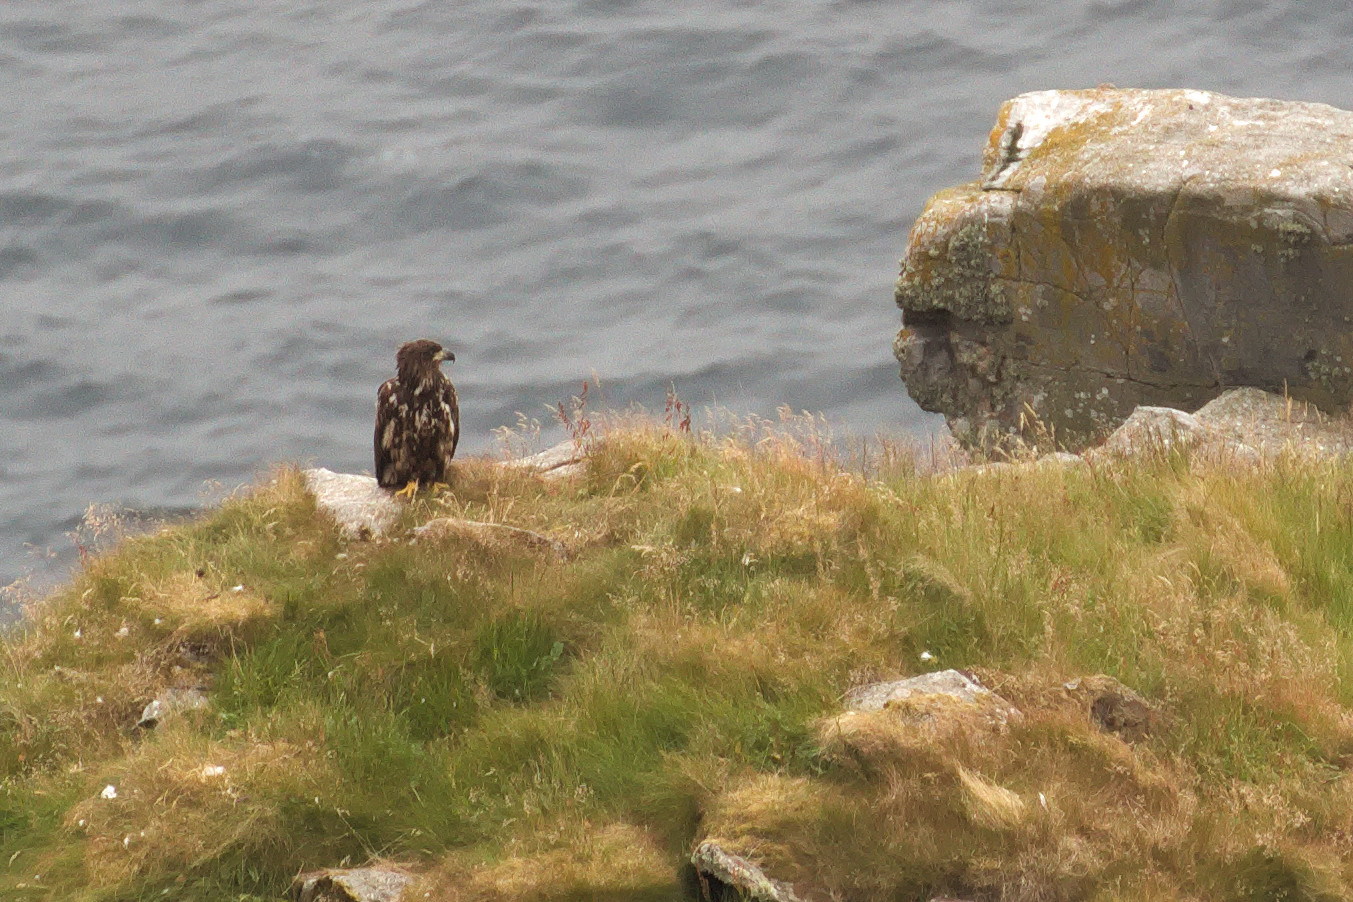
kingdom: Animalia
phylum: Chordata
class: Aves
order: Accipitriformes
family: Accipitridae
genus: Haliaeetus
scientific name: Haliaeetus albicilla
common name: White-tailed eagle
